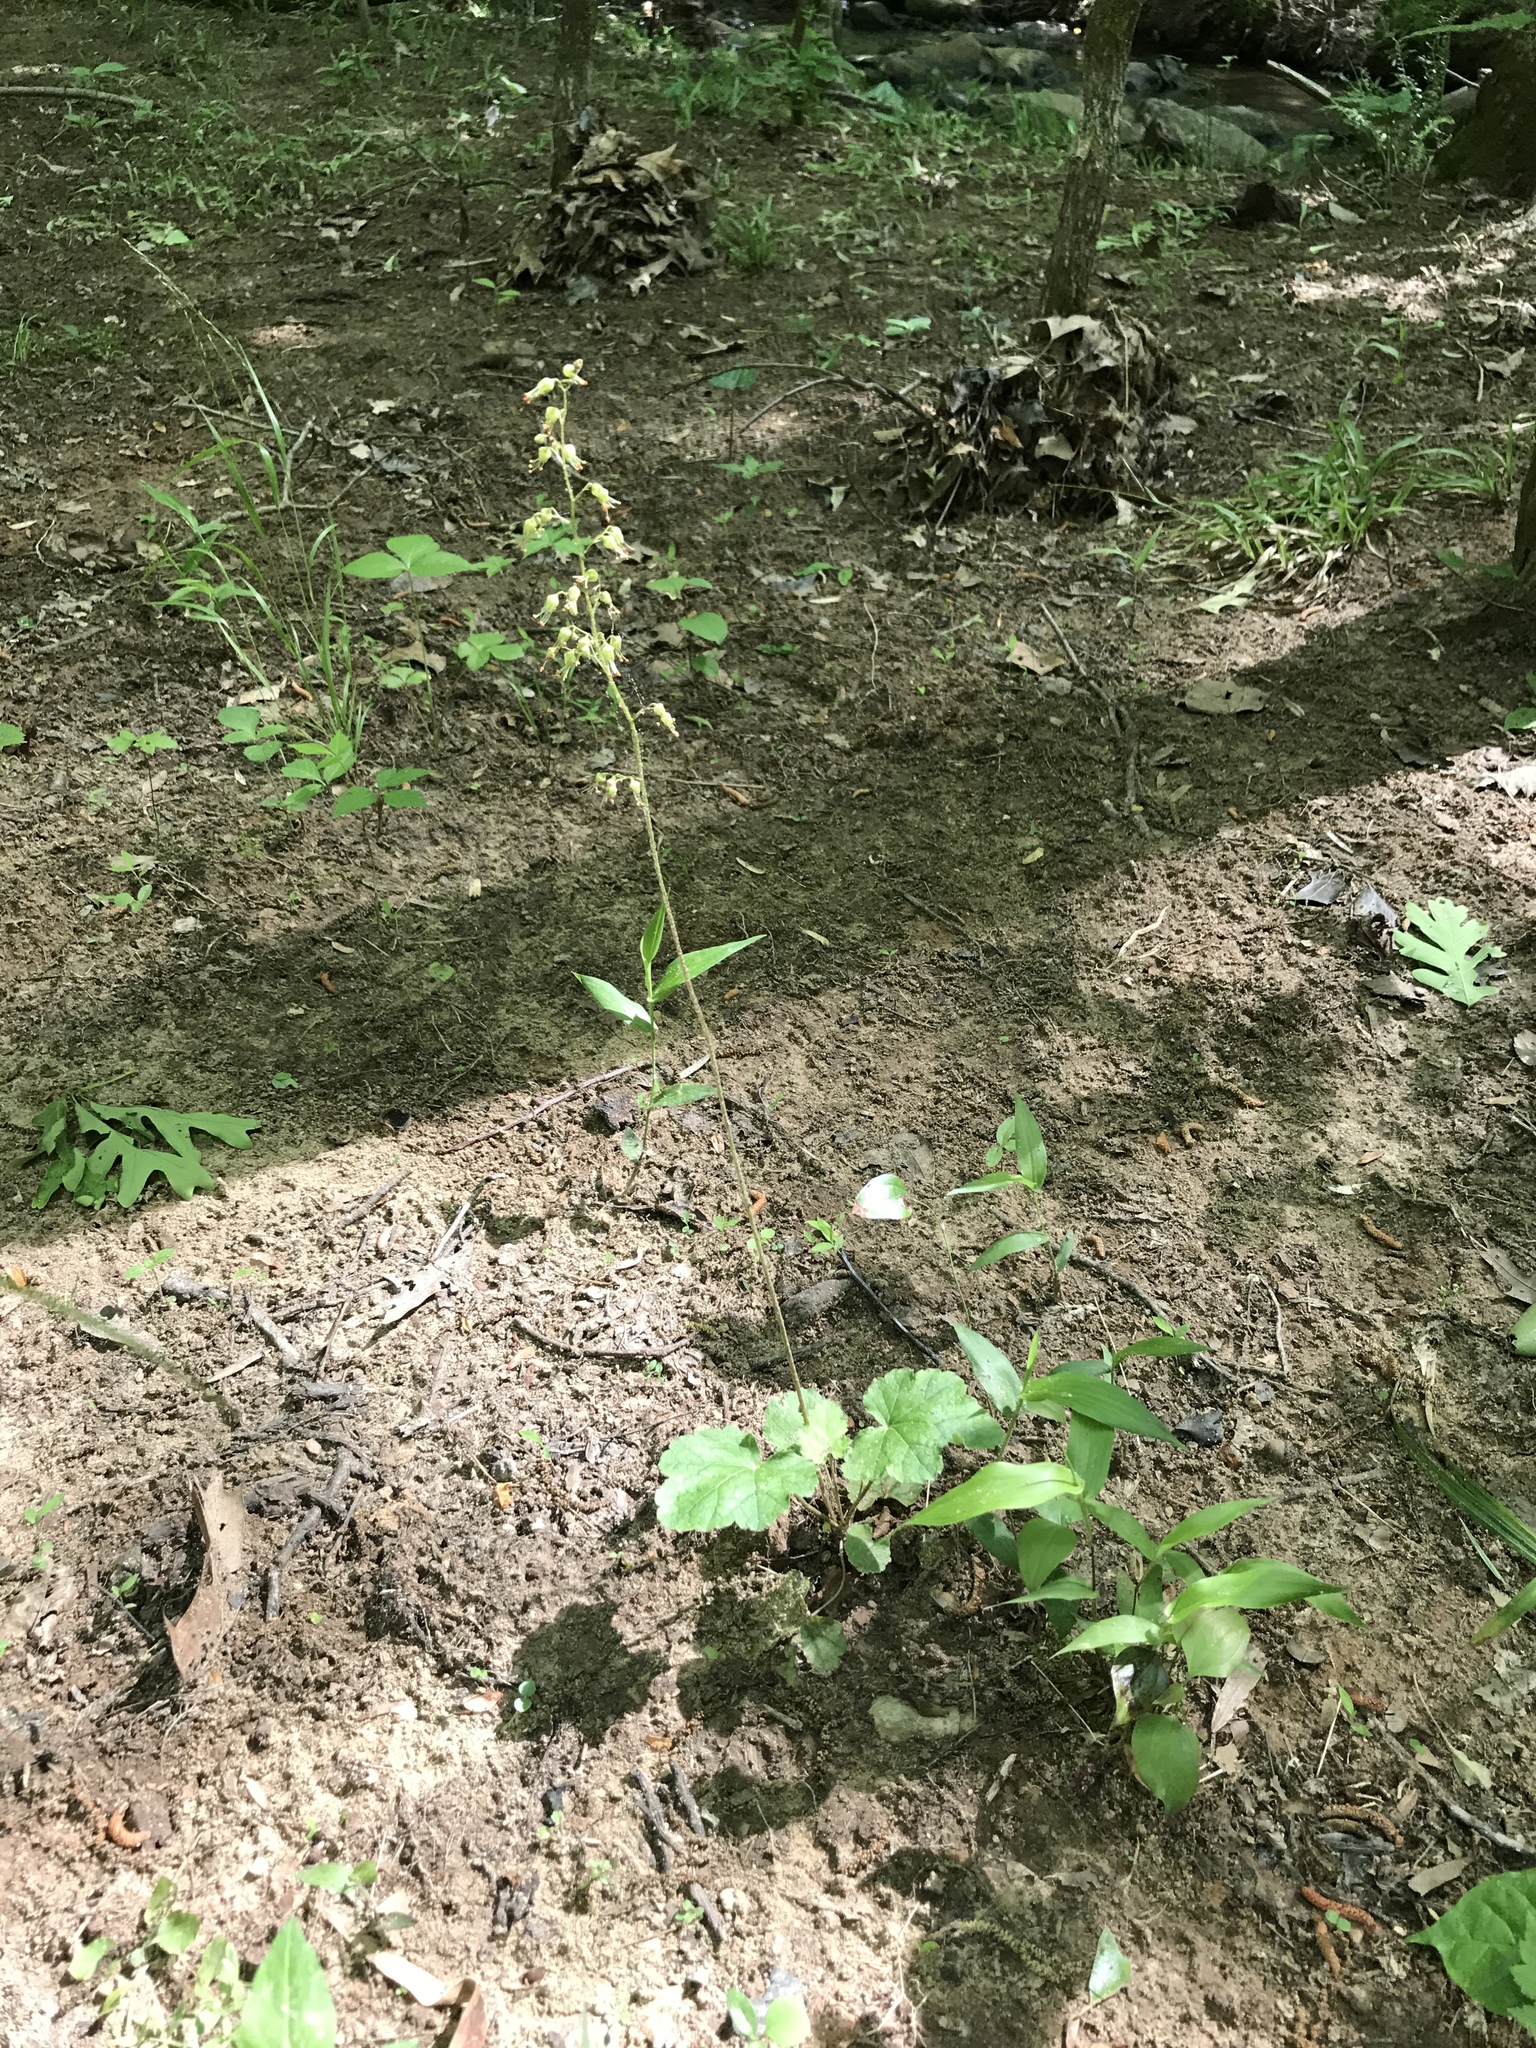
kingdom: Plantae
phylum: Tracheophyta
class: Magnoliopsida
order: Saxifragales
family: Saxifragaceae
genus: Heuchera
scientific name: Heuchera americana
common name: Alumroot
